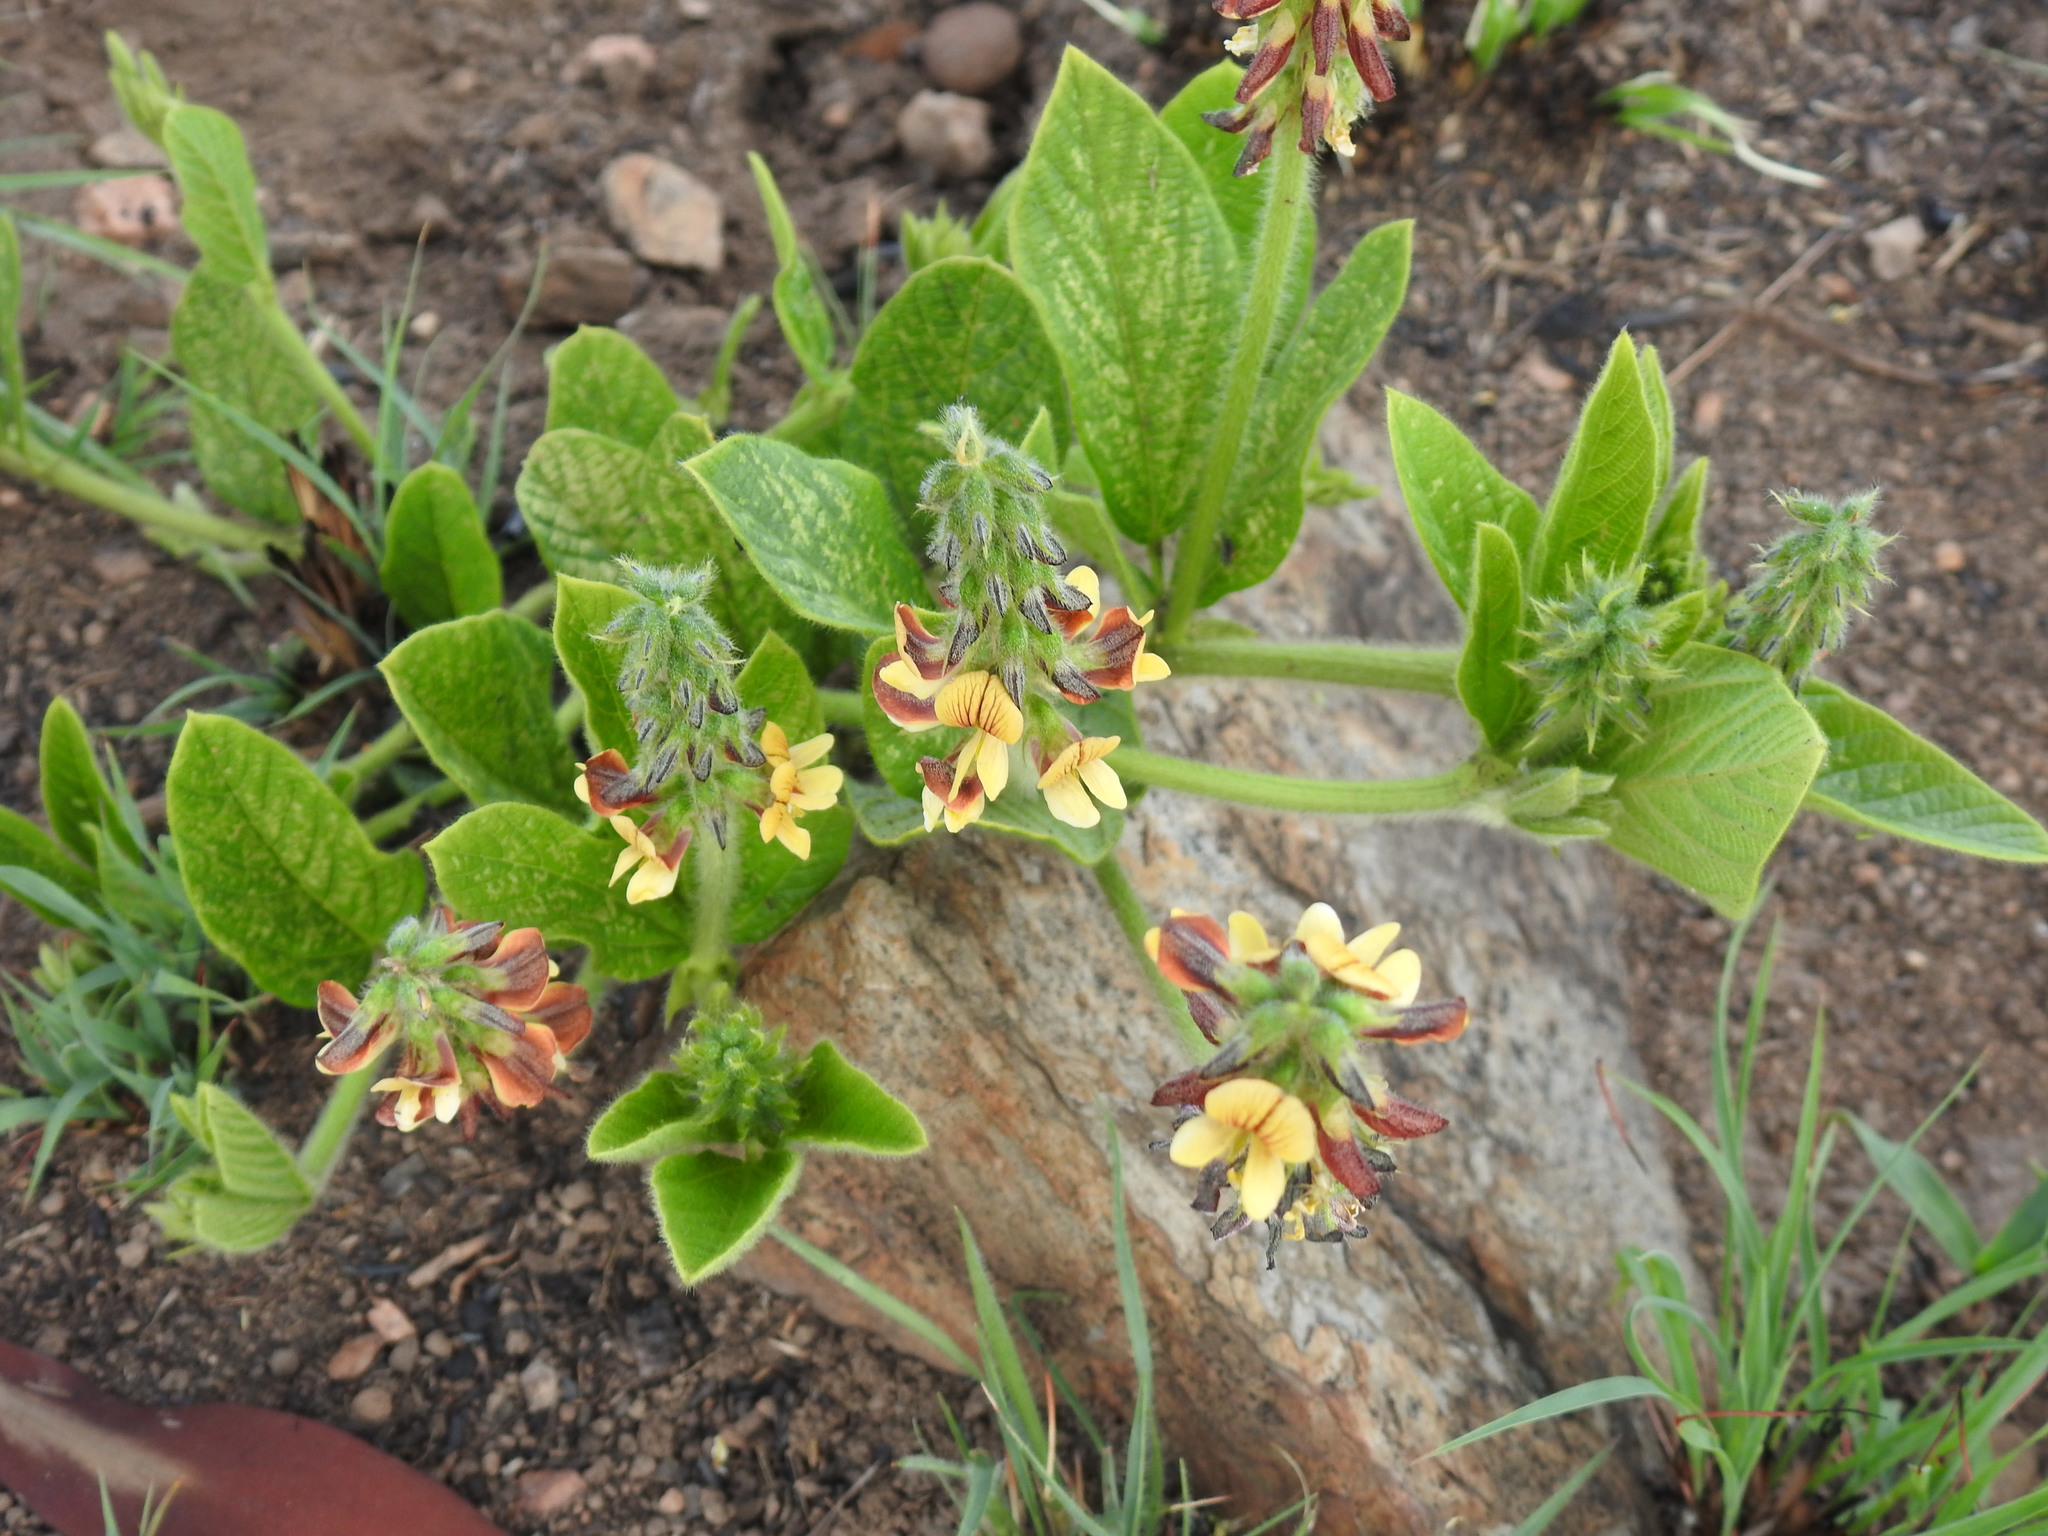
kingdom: Plantae
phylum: Tracheophyta
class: Magnoliopsida
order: Fabales
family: Fabaceae
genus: Eriosema
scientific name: Eriosema cordatum
